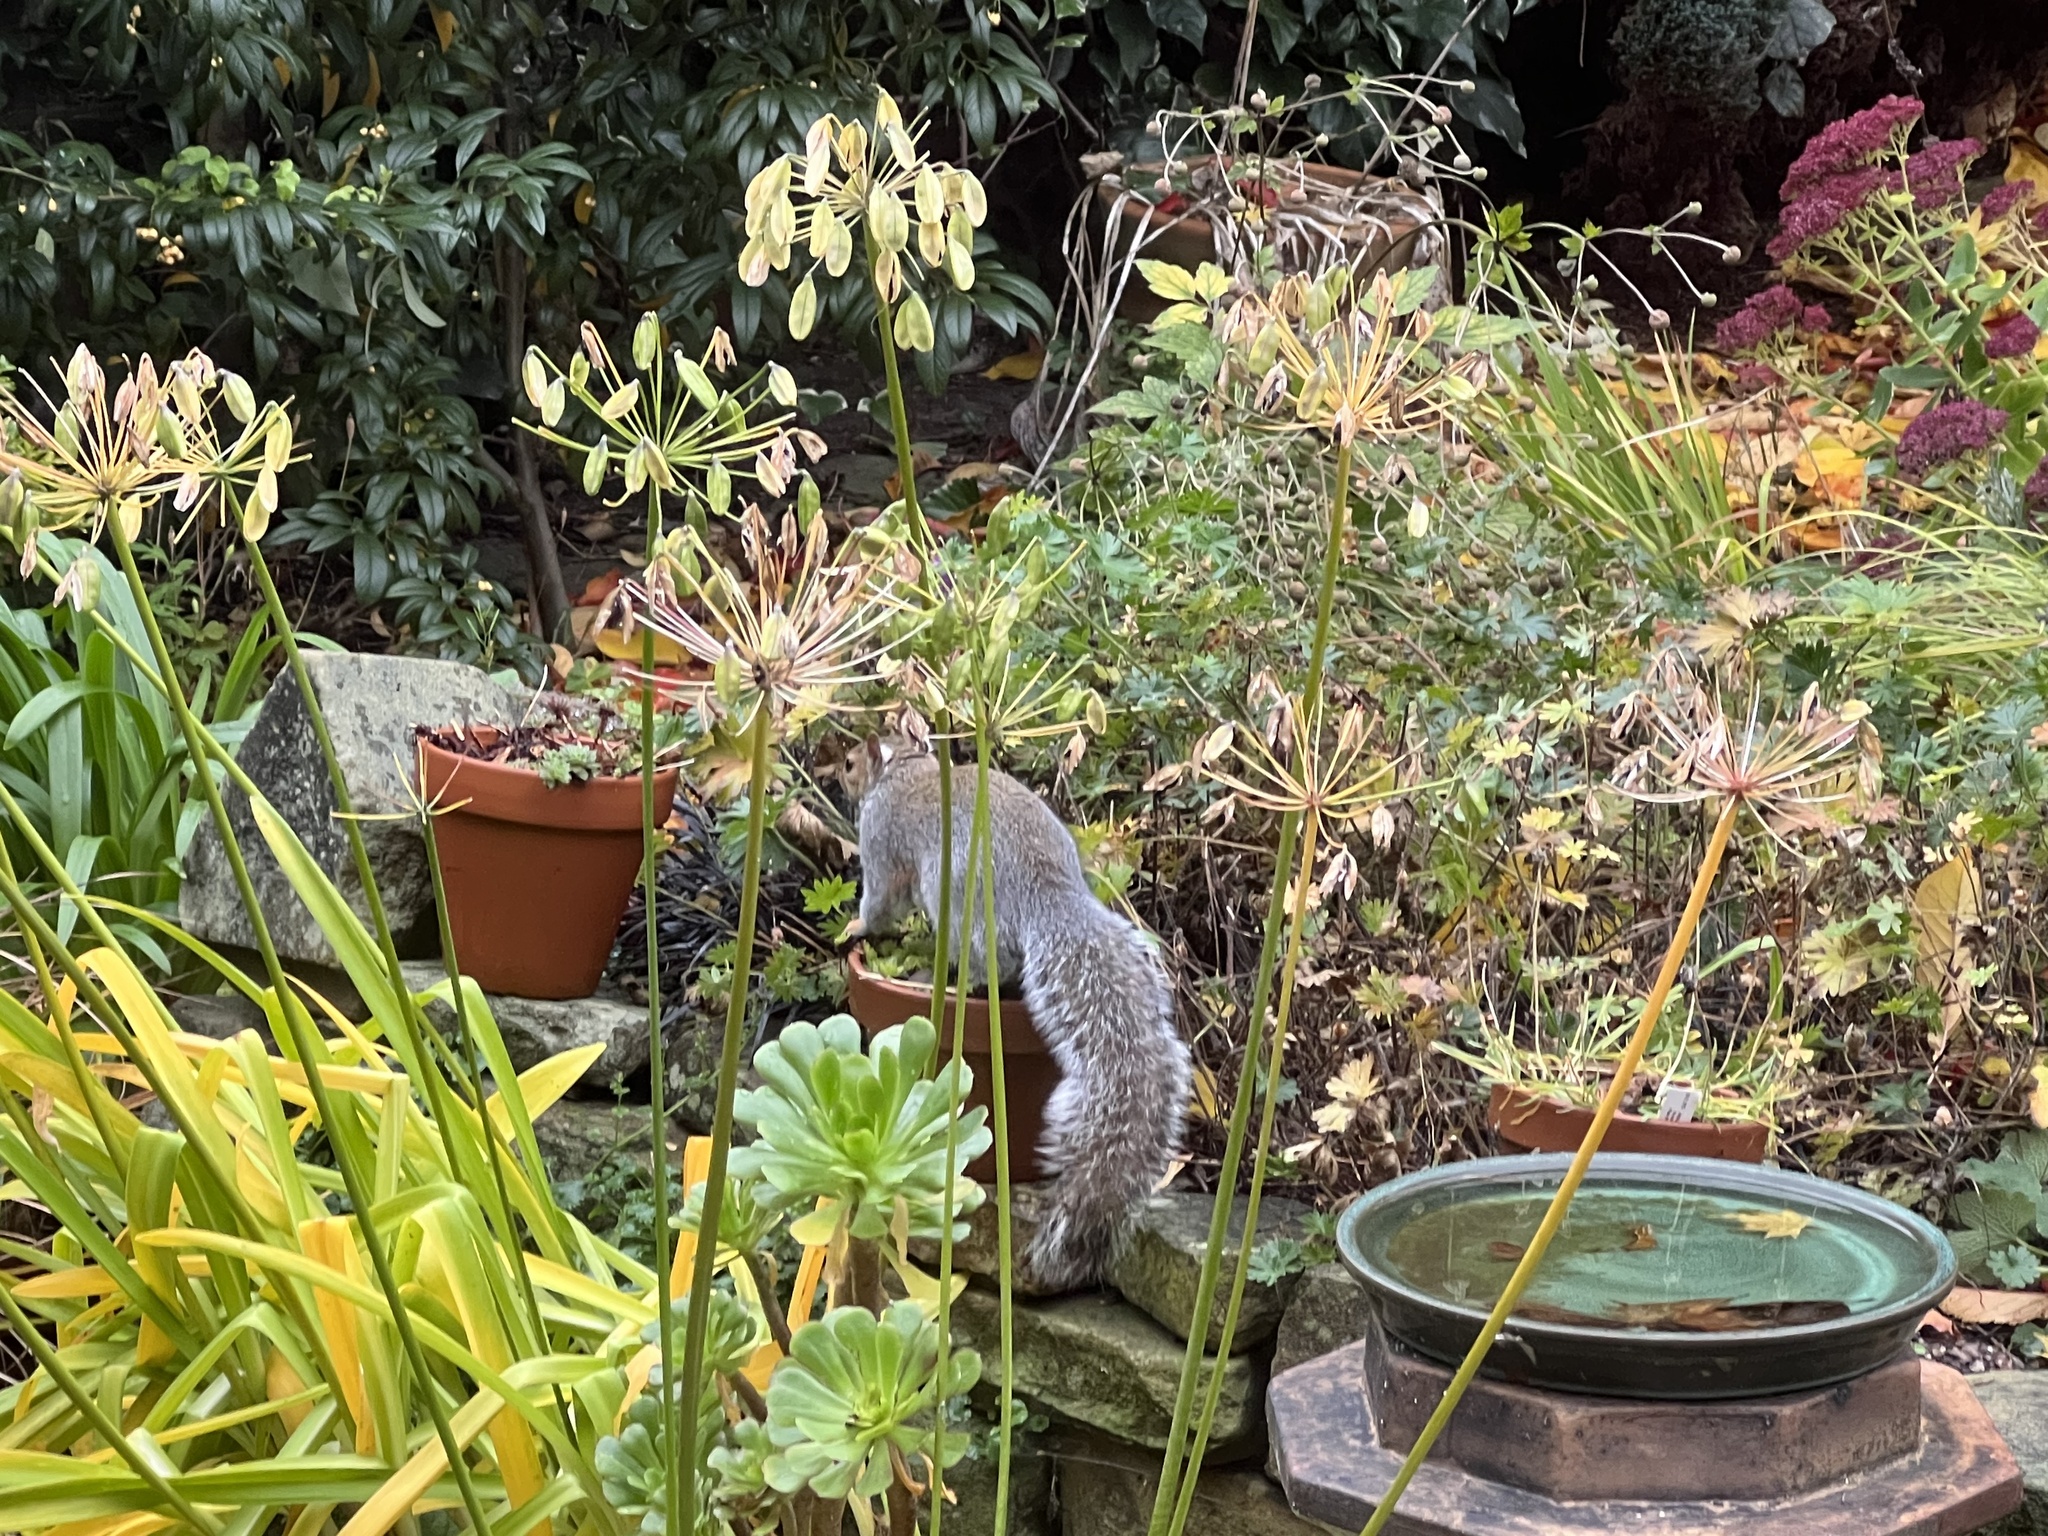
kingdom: Animalia
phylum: Chordata
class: Mammalia
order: Rodentia
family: Sciuridae
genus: Sciurus
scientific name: Sciurus carolinensis
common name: Eastern gray squirrel
